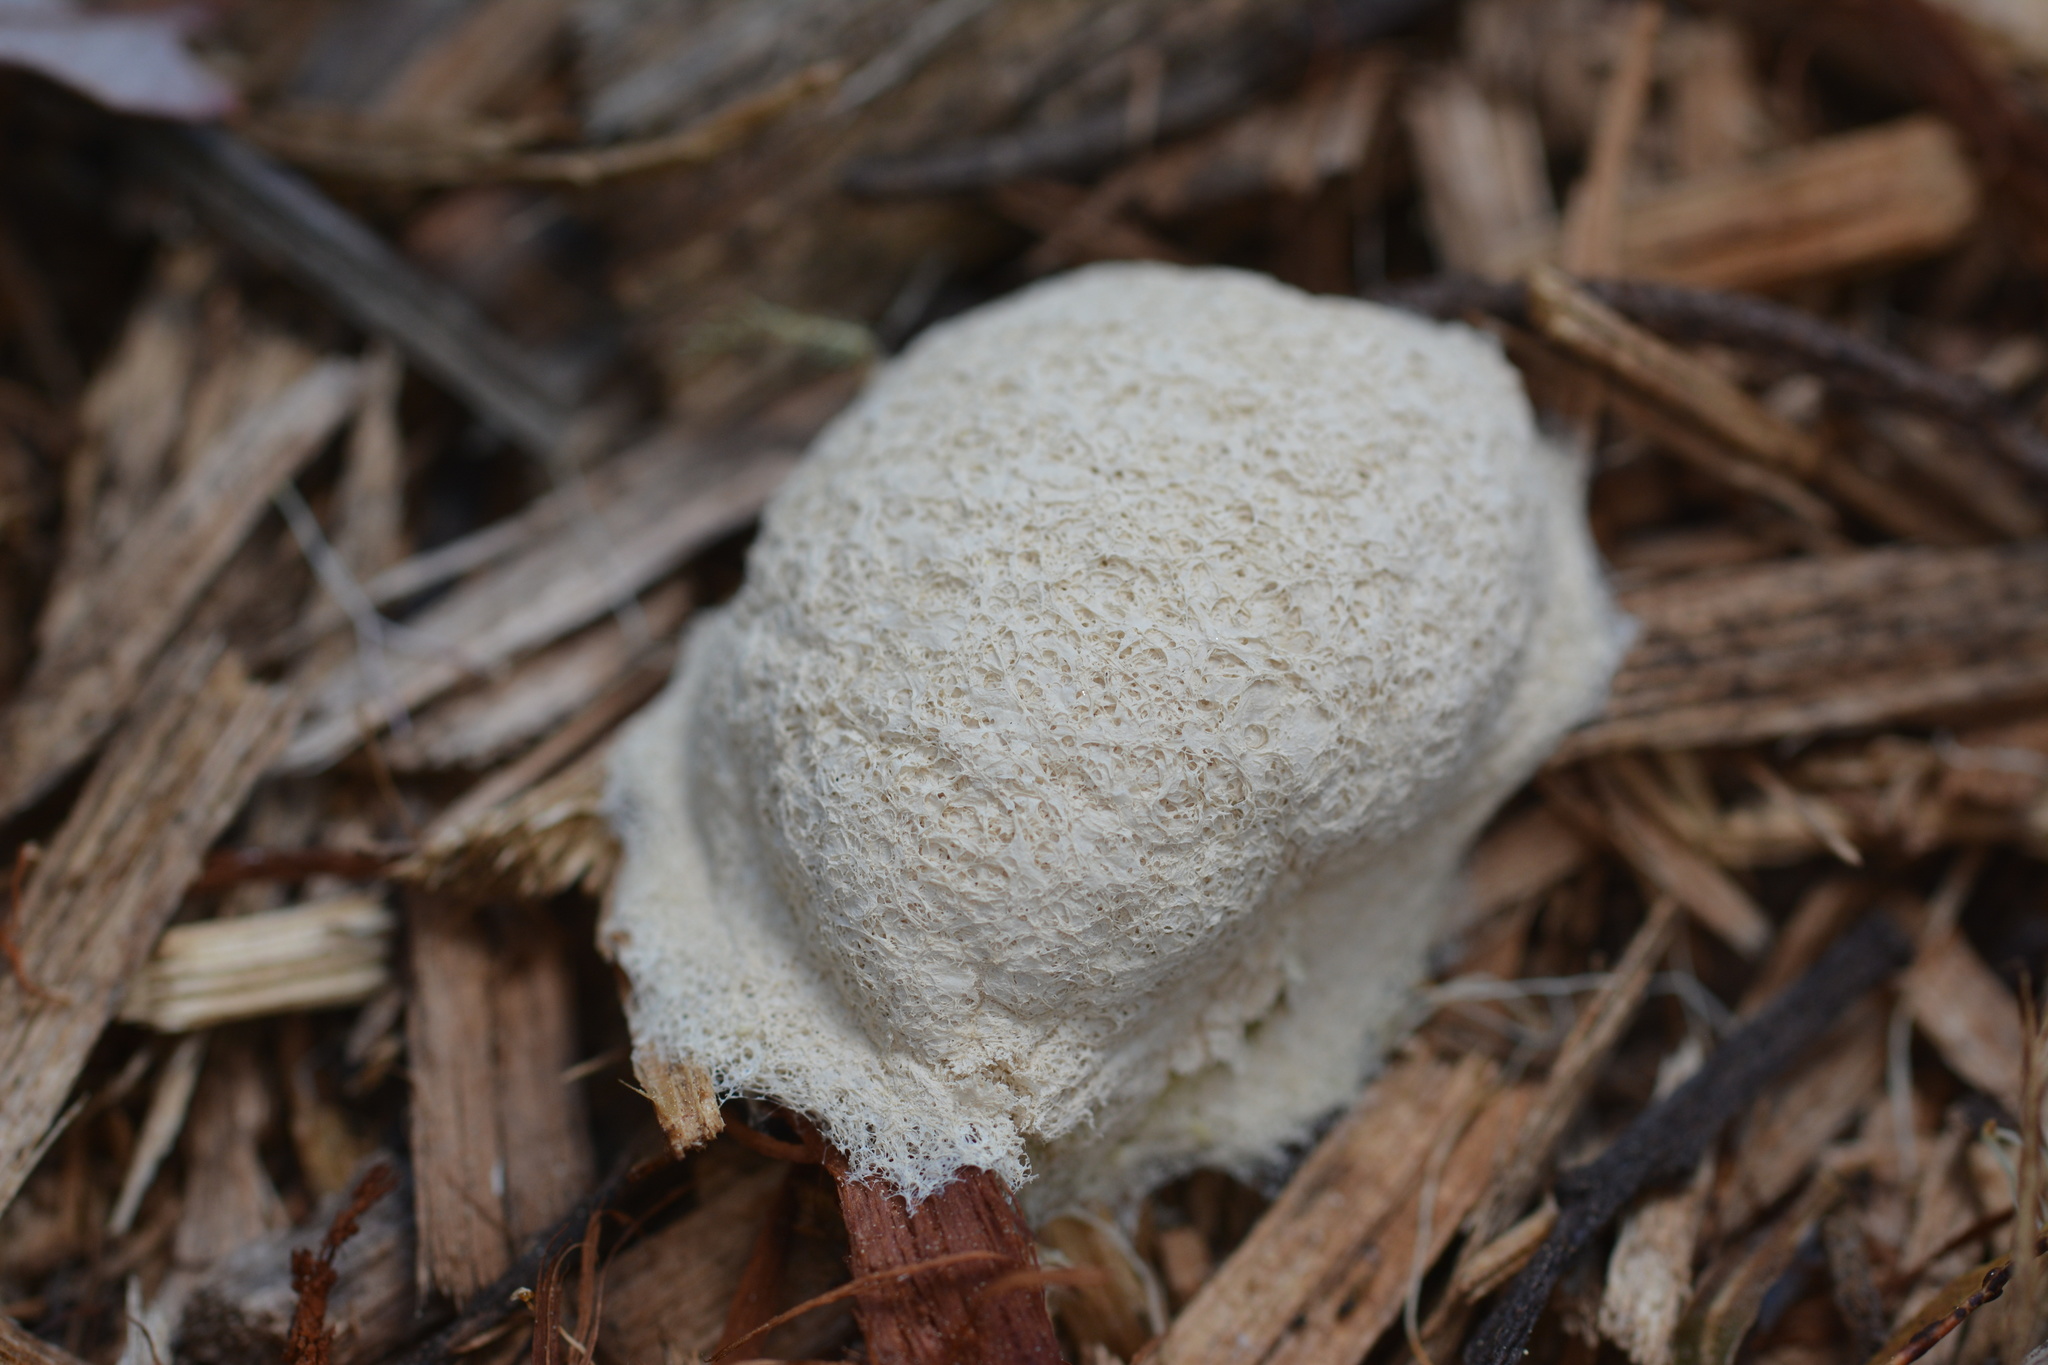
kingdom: Protozoa
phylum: Mycetozoa
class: Myxomycetes
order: Physarales
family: Physaraceae
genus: Fuligo
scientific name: Fuligo septica
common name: Dog vomit slime mold
